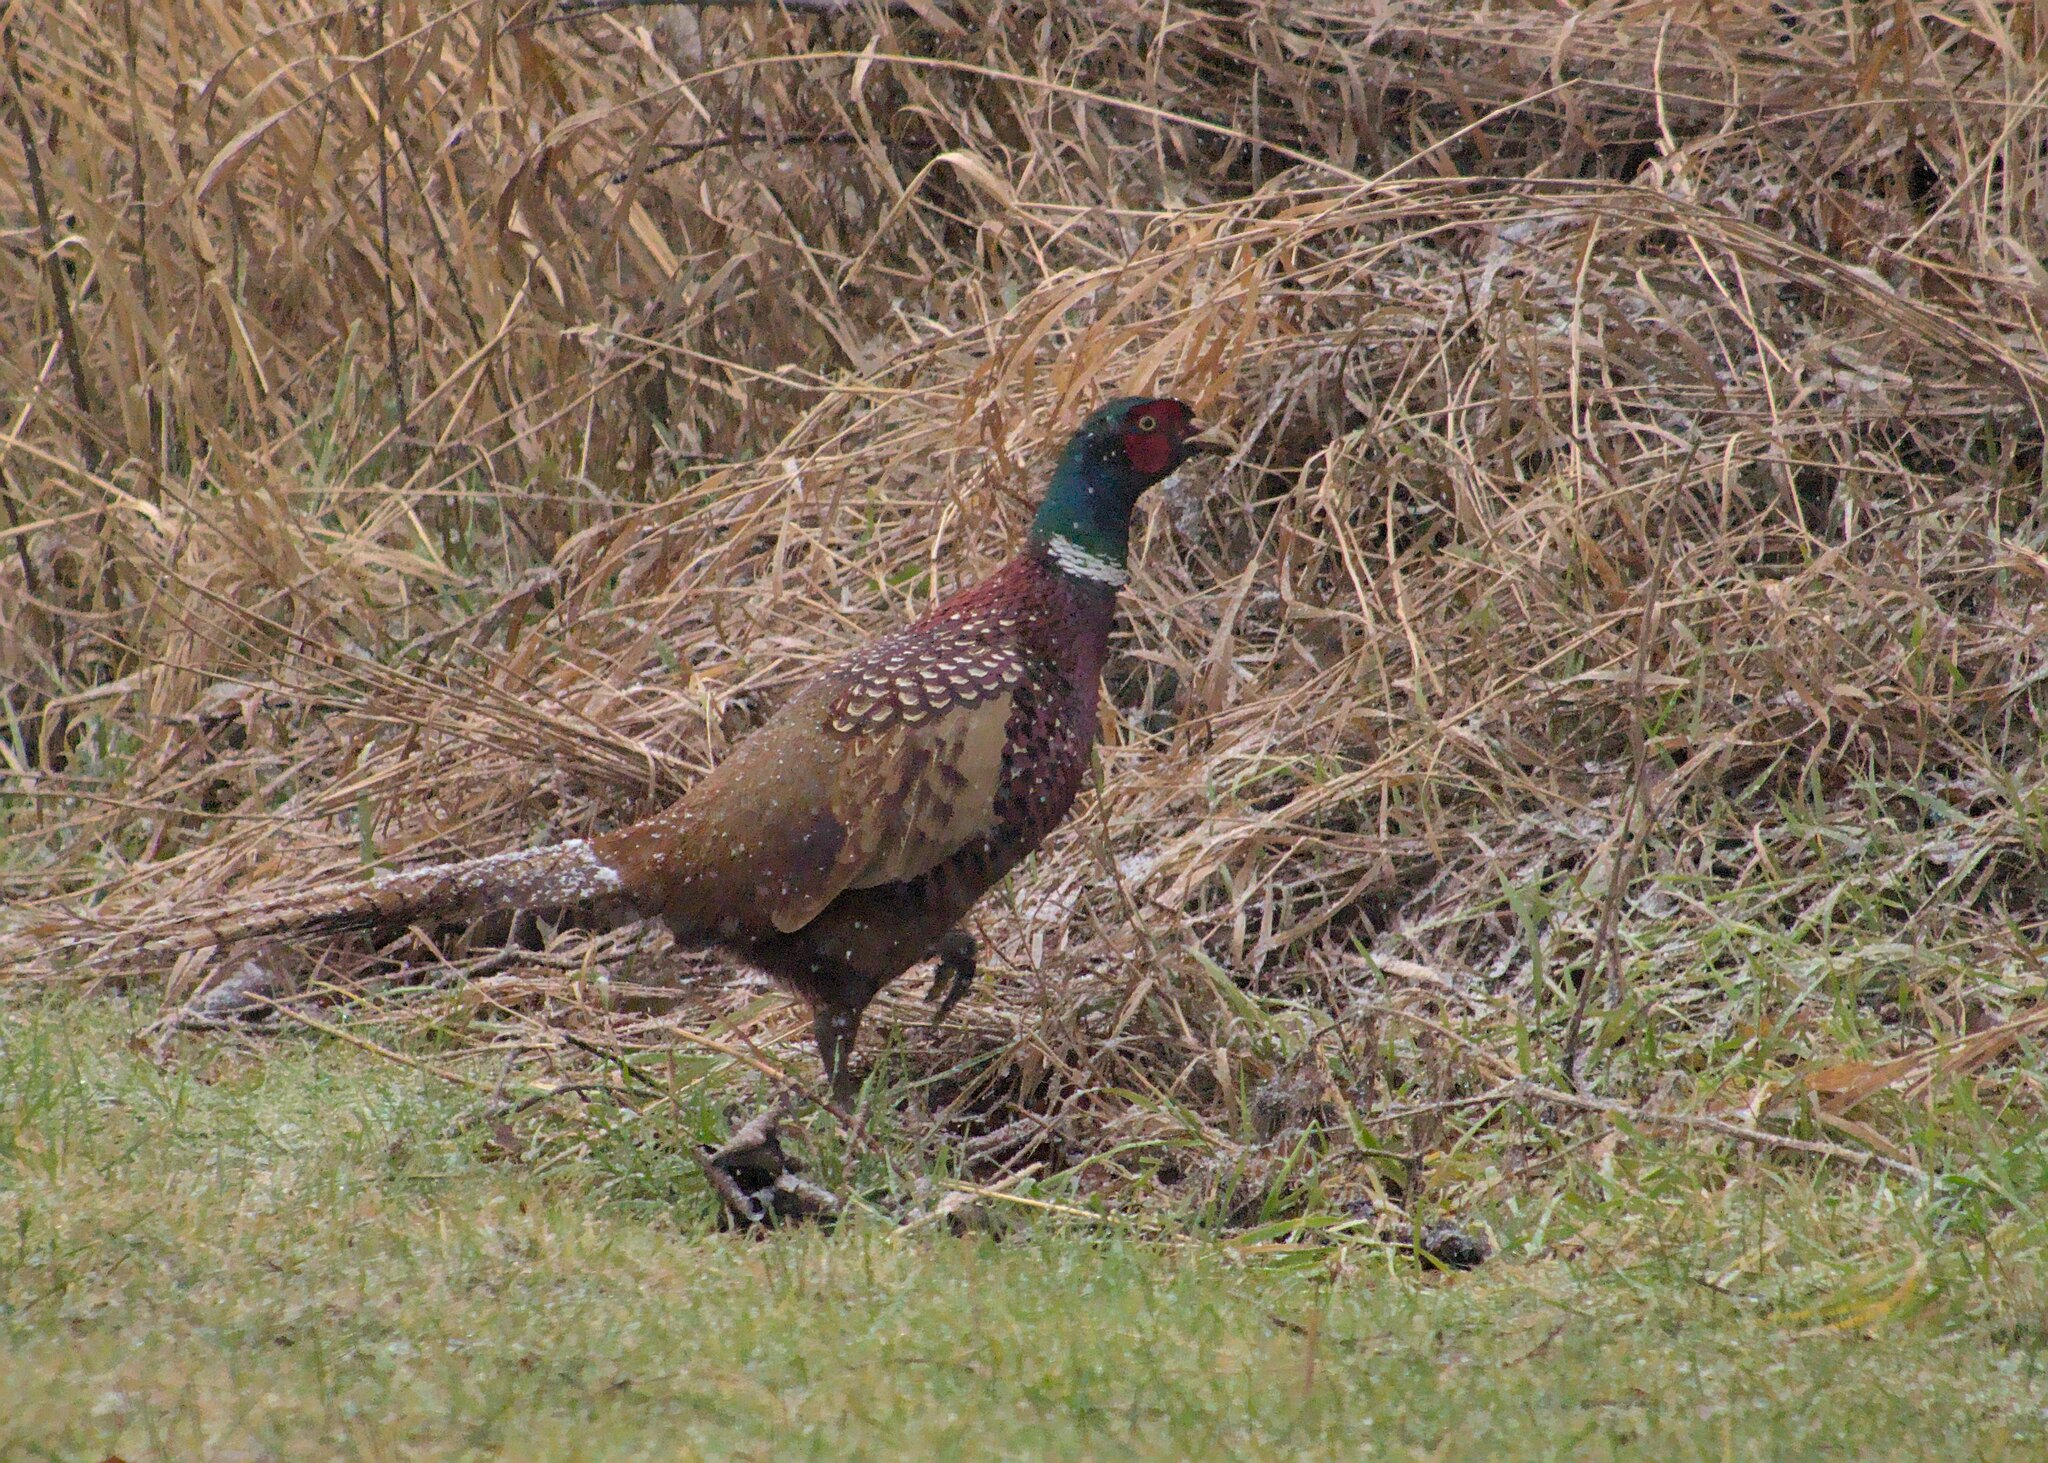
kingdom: Animalia
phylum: Chordata
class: Aves
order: Galliformes
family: Phasianidae
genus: Phasianus
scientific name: Phasianus colchicus
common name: Common pheasant
